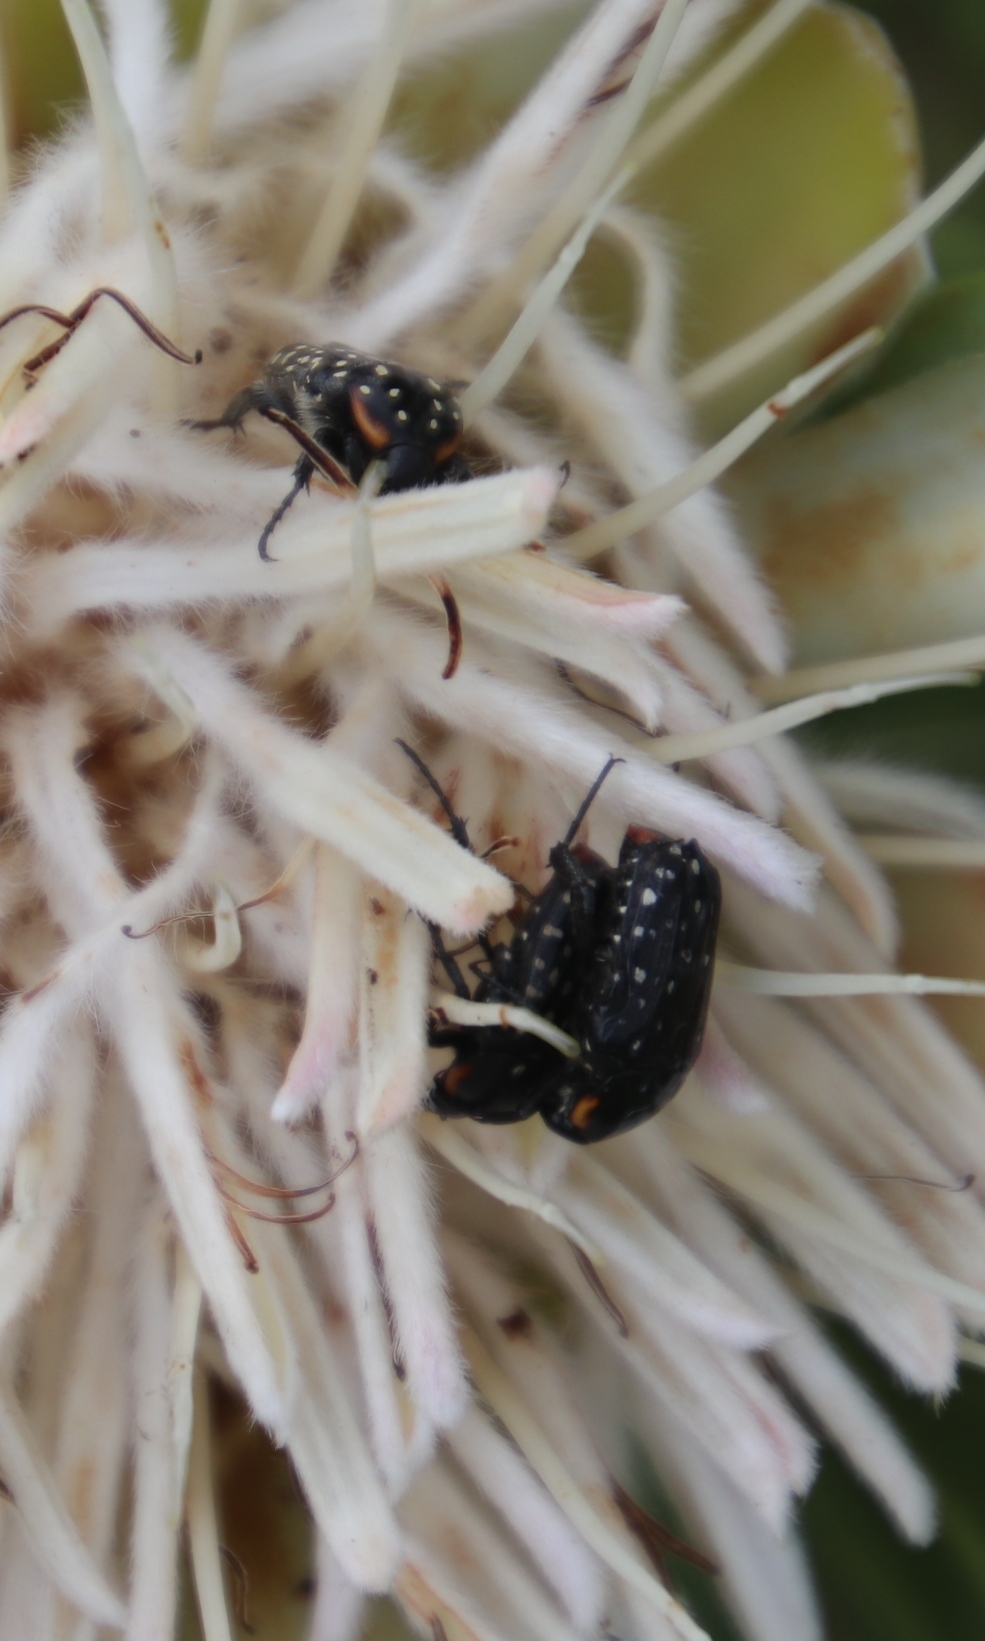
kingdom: Animalia
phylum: Arthropoda
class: Insecta
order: Coleoptera
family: Scarabaeidae
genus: Oxythyrea
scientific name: Oxythyrea
